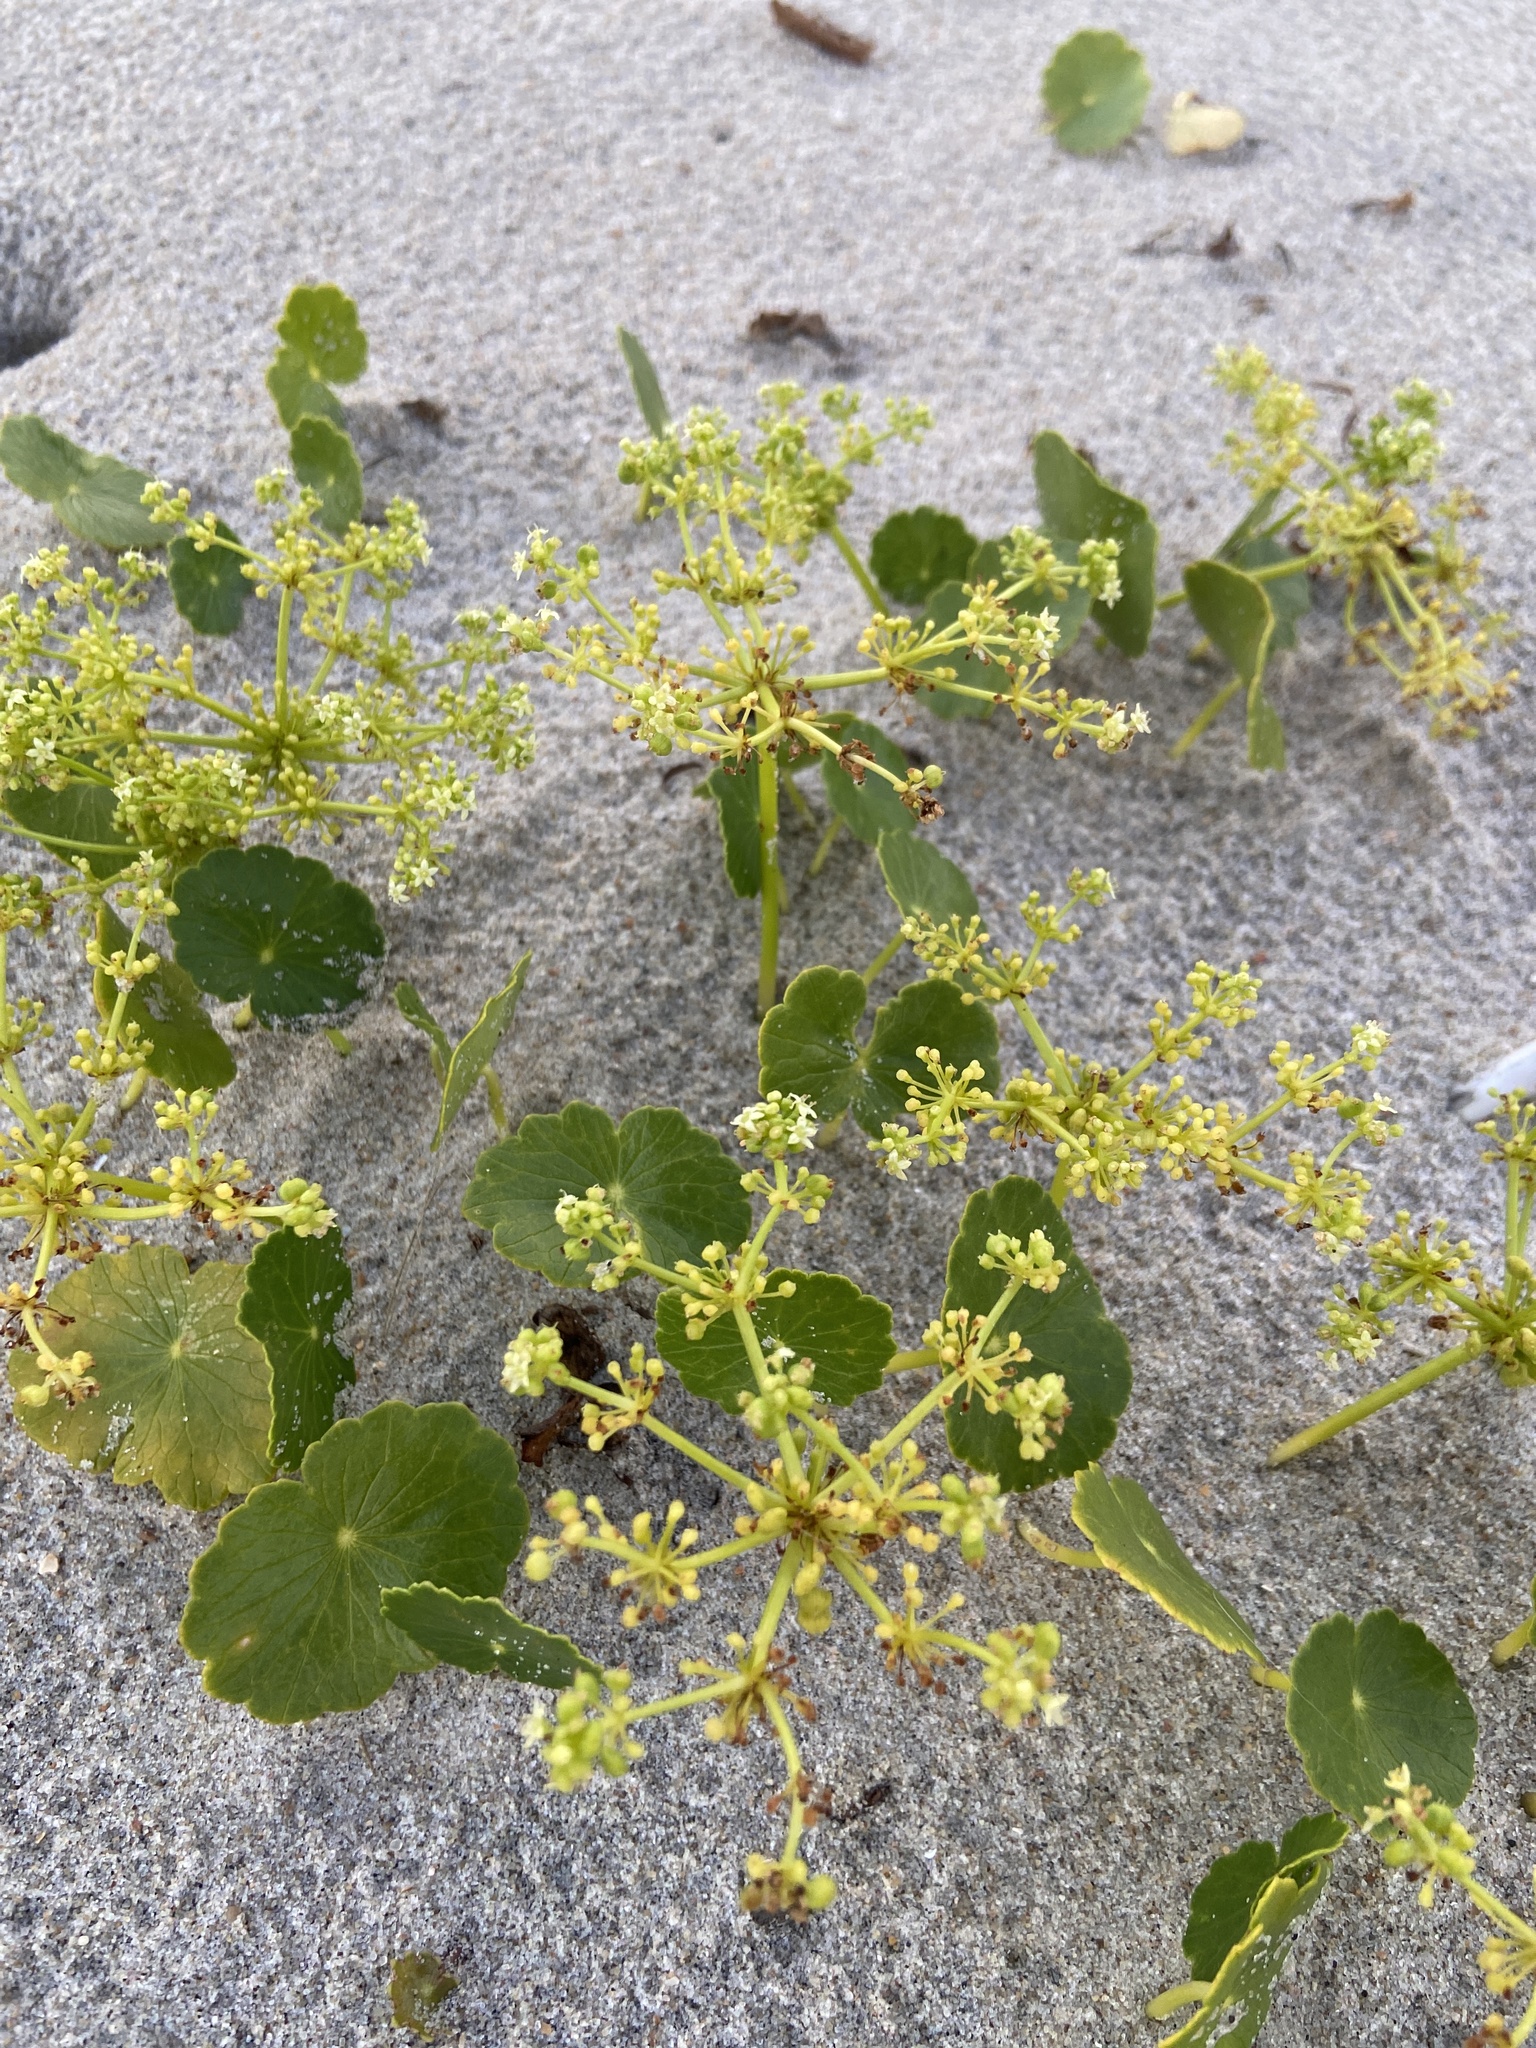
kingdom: Plantae
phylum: Tracheophyta
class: Magnoliopsida
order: Apiales
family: Araliaceae
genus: Hydrocotyle
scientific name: Hydrocotyle bonariensis
